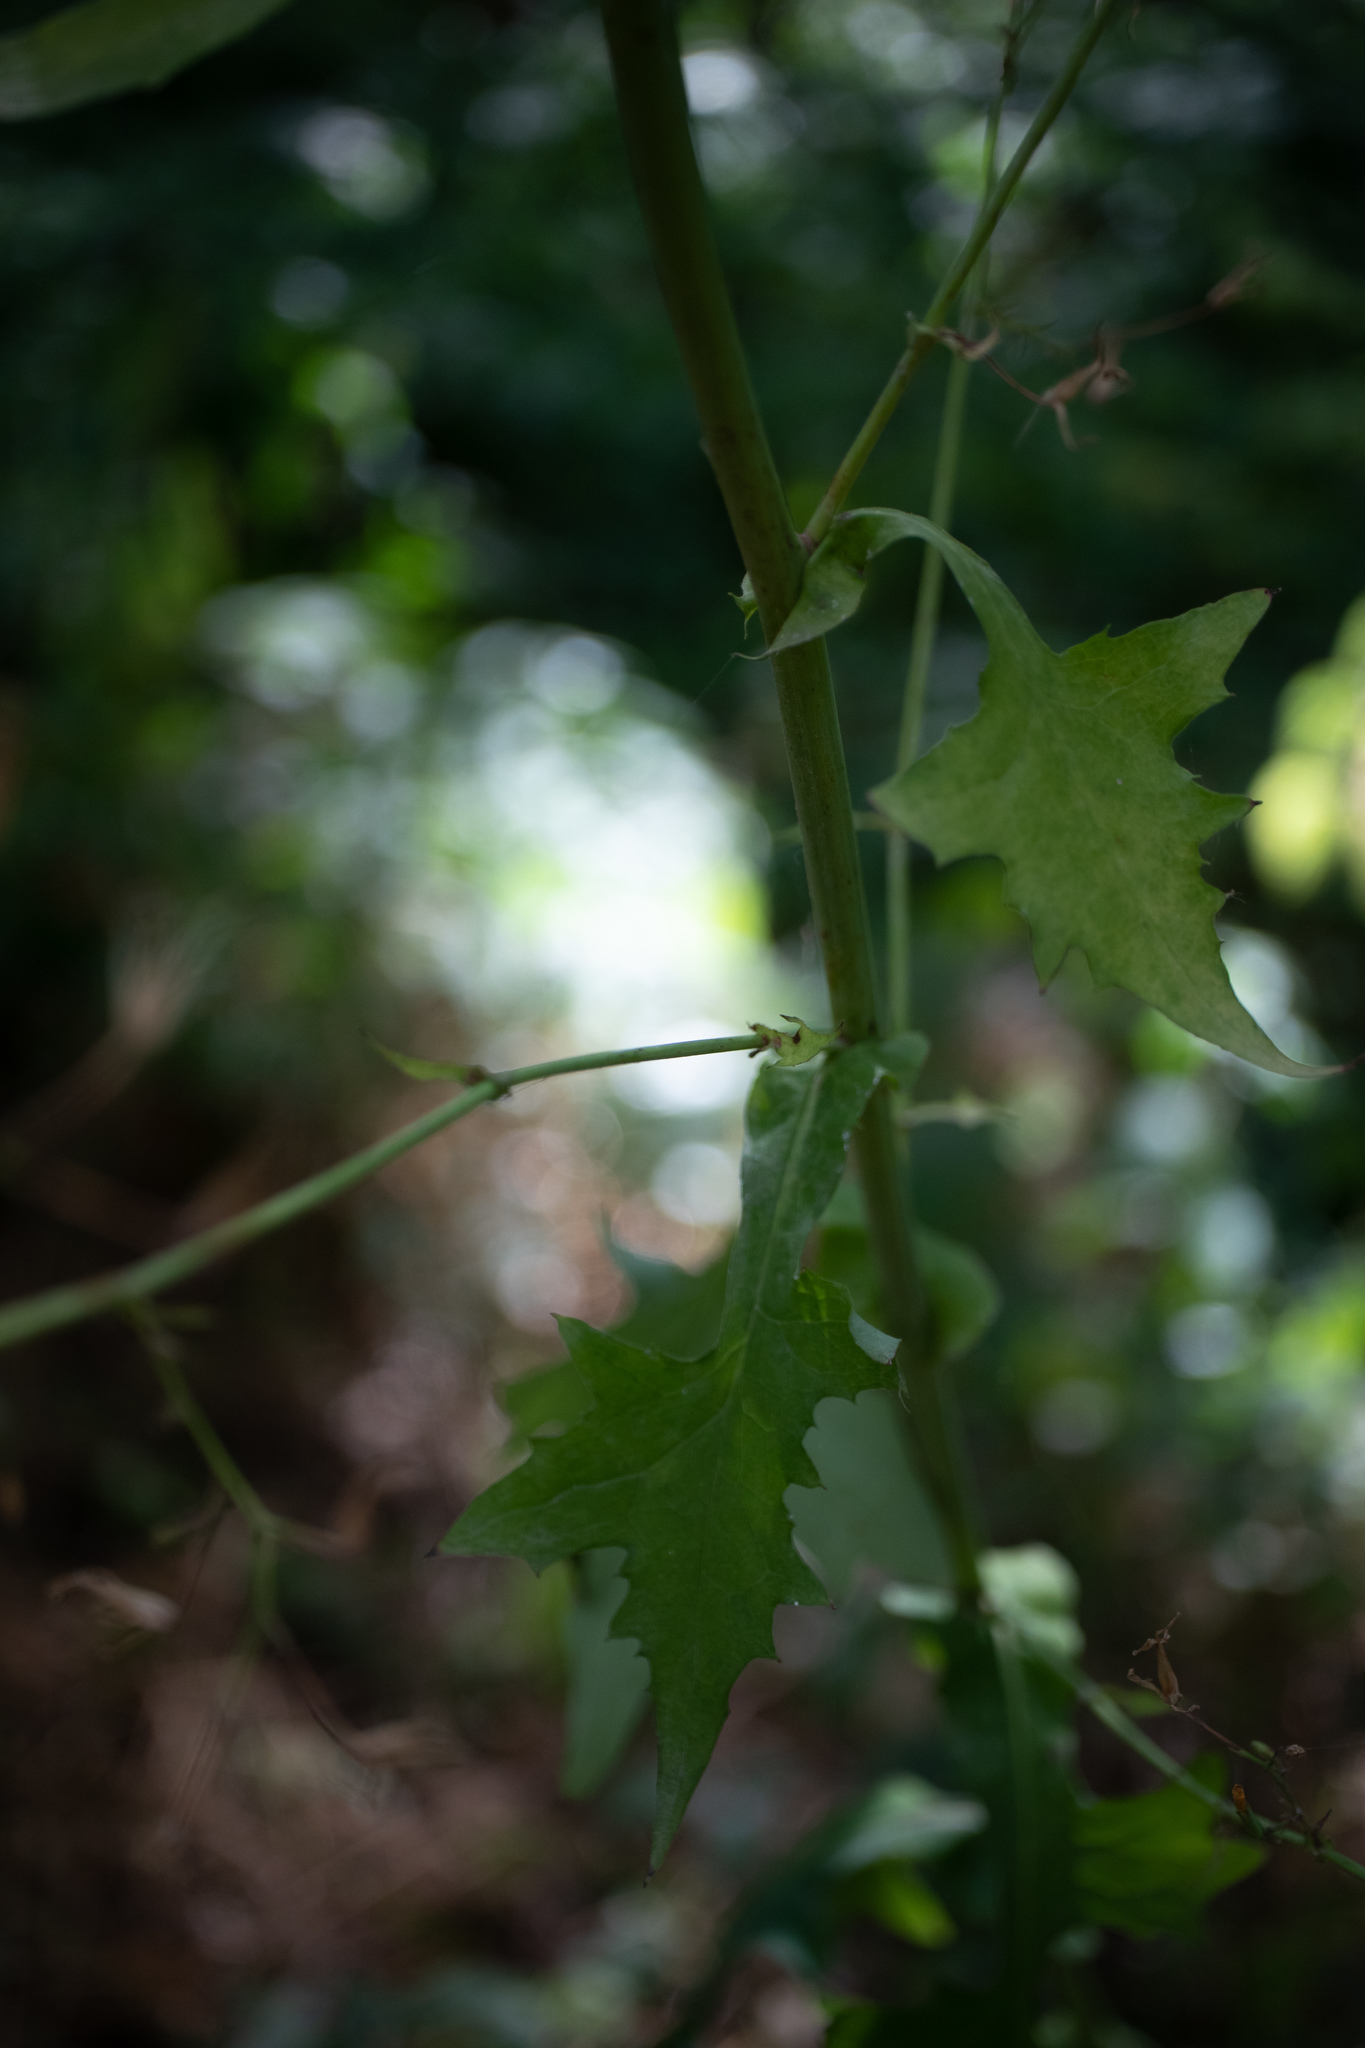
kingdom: Plantae
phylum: Tracheophyta
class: Magnoliopsida
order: Asterales
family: Asteraceae
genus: Mycelis
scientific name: Mycelis muralis
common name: Wall lettuce
